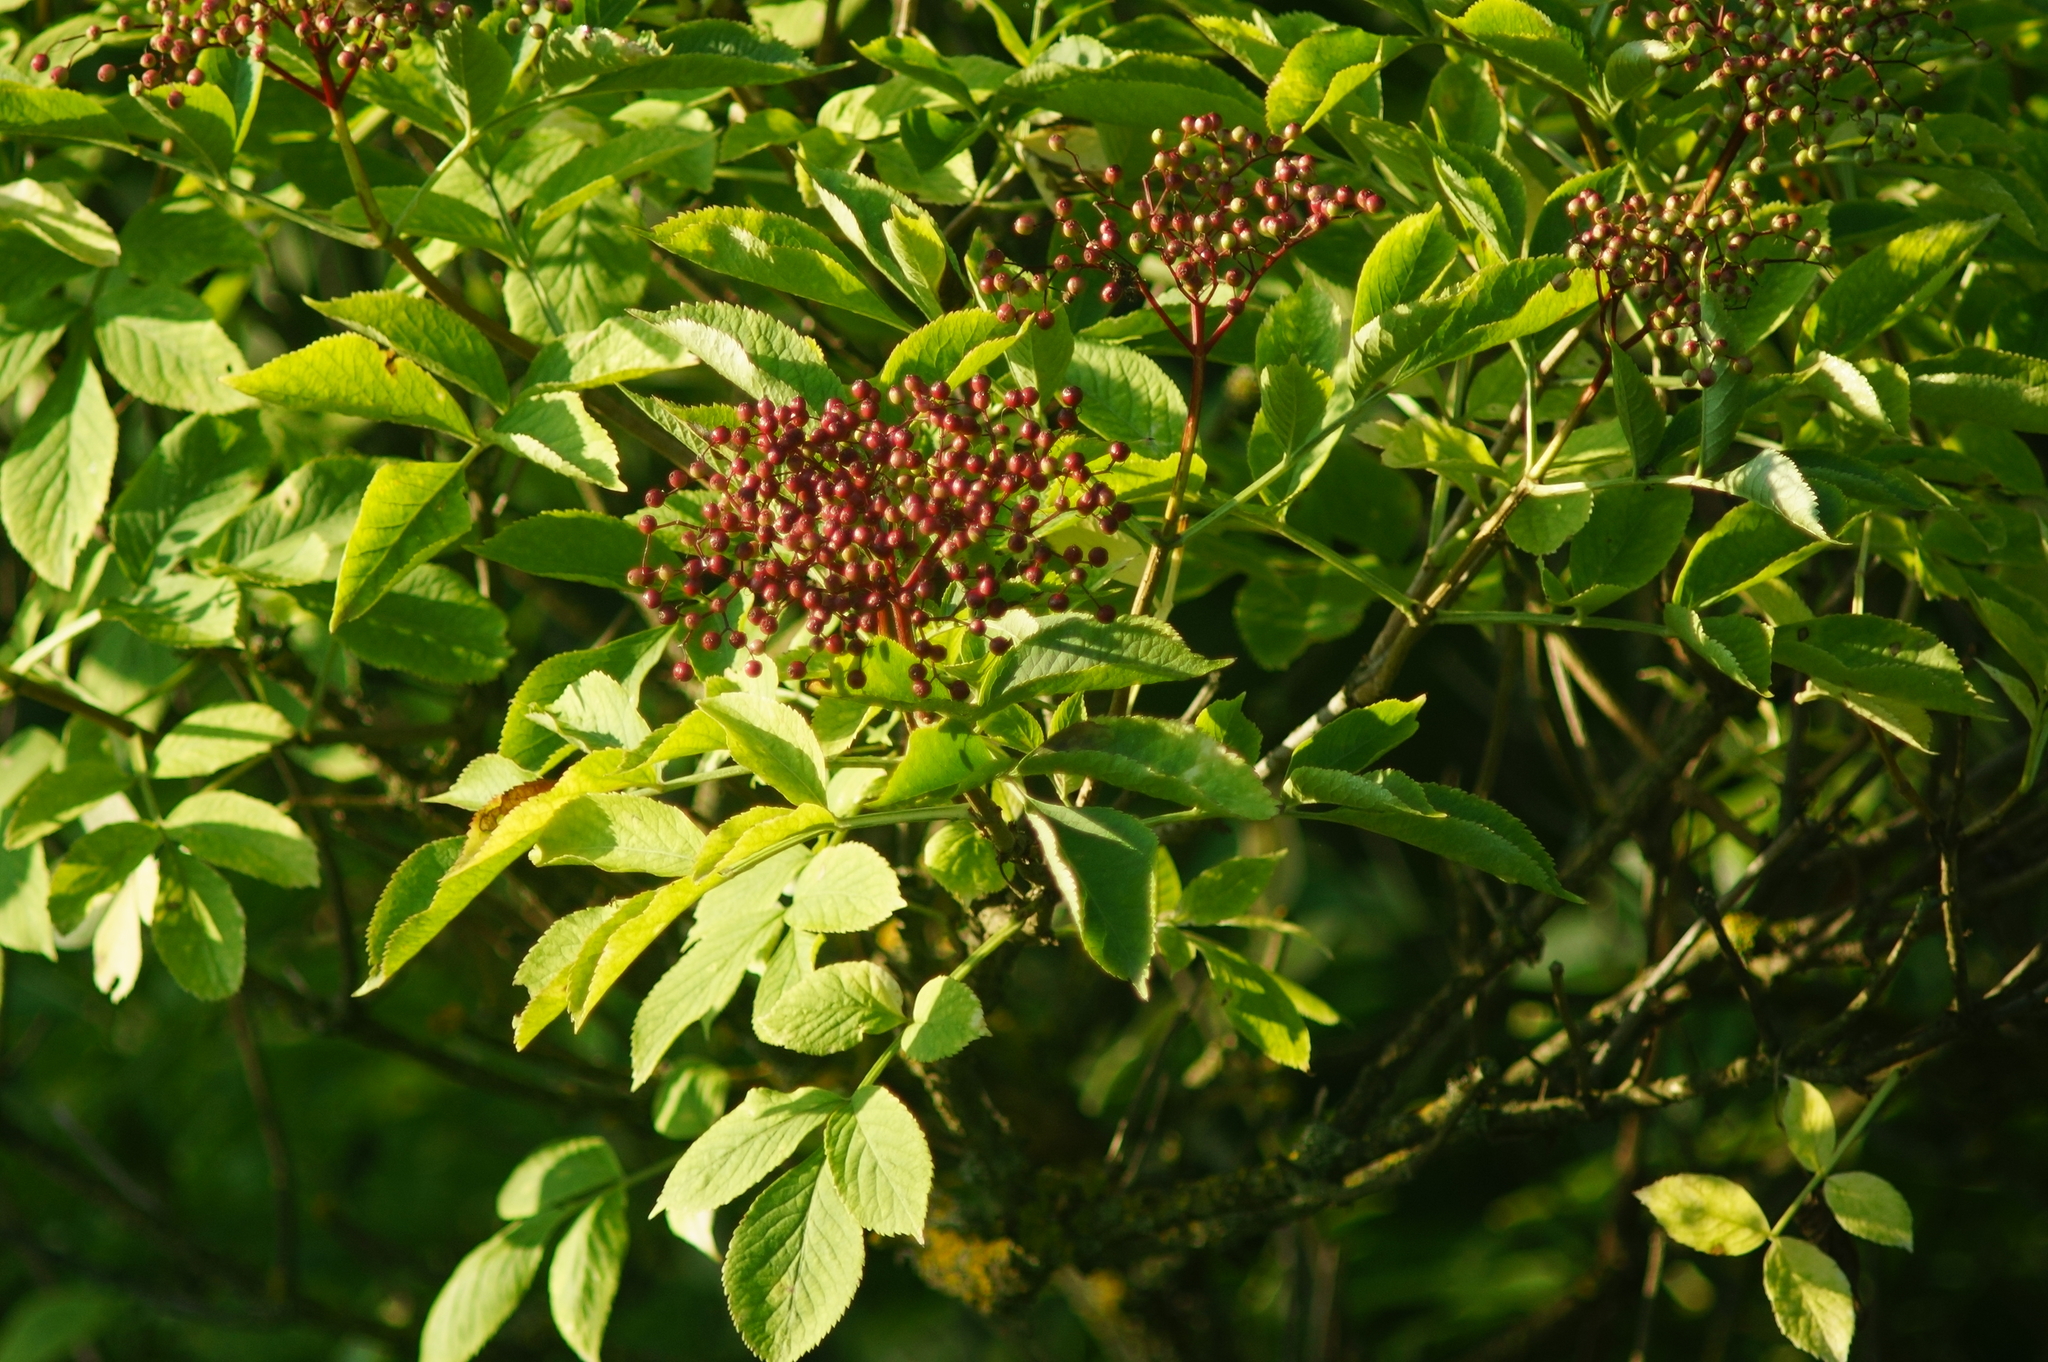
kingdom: Plantae
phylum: Tracheophyta
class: Magnoliopsida
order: Dipsacales
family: Viburnaceae
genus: Sambucus
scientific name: Sambucus nigra
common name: Elder
